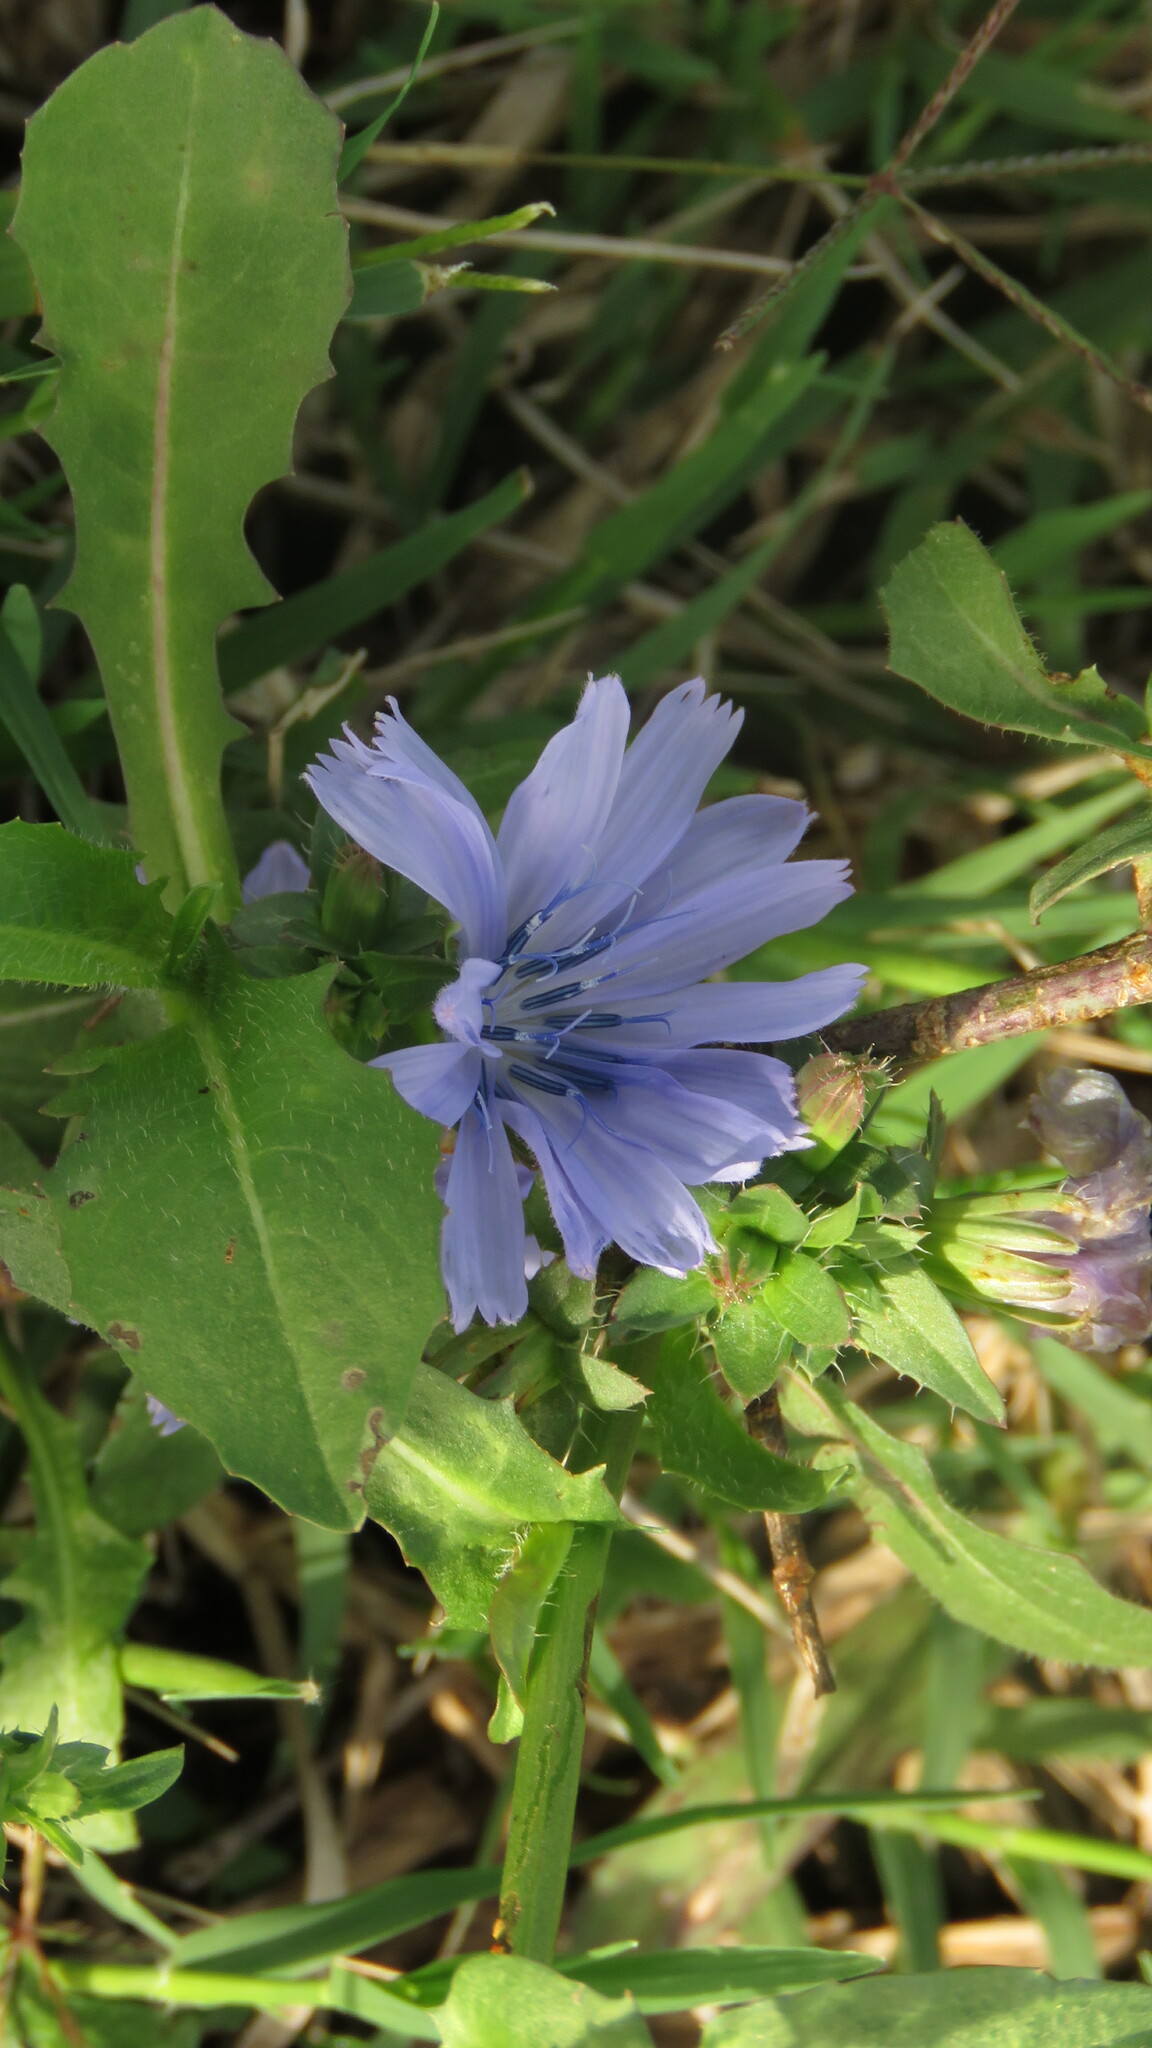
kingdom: Plantae
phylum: Tracheophyta
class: Magnoliopsida
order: Asterales
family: Asteraceae
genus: Cichorium
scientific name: Cichorium intybus
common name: Chicory
